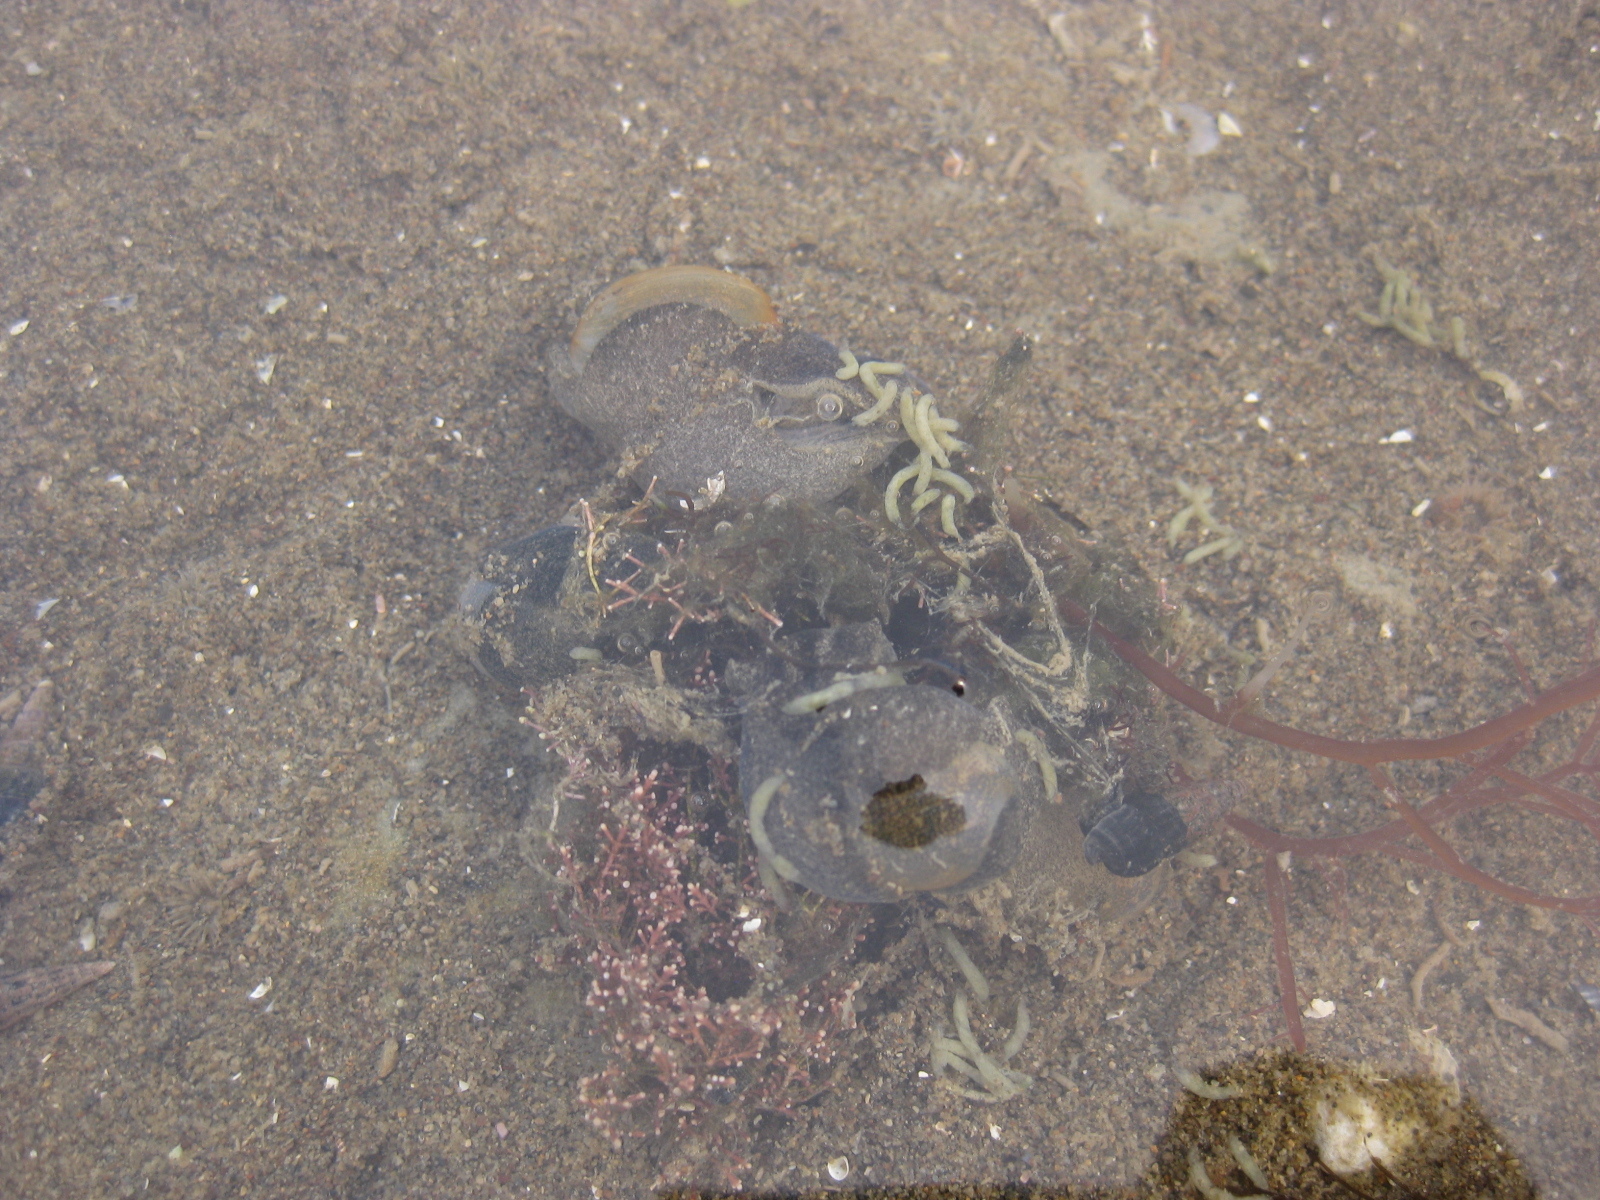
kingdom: Animalia
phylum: Mollusca
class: Gastropoda
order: Cephalaspidea
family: Haminoeidae
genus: Papawera
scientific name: Papawera zelandiae
